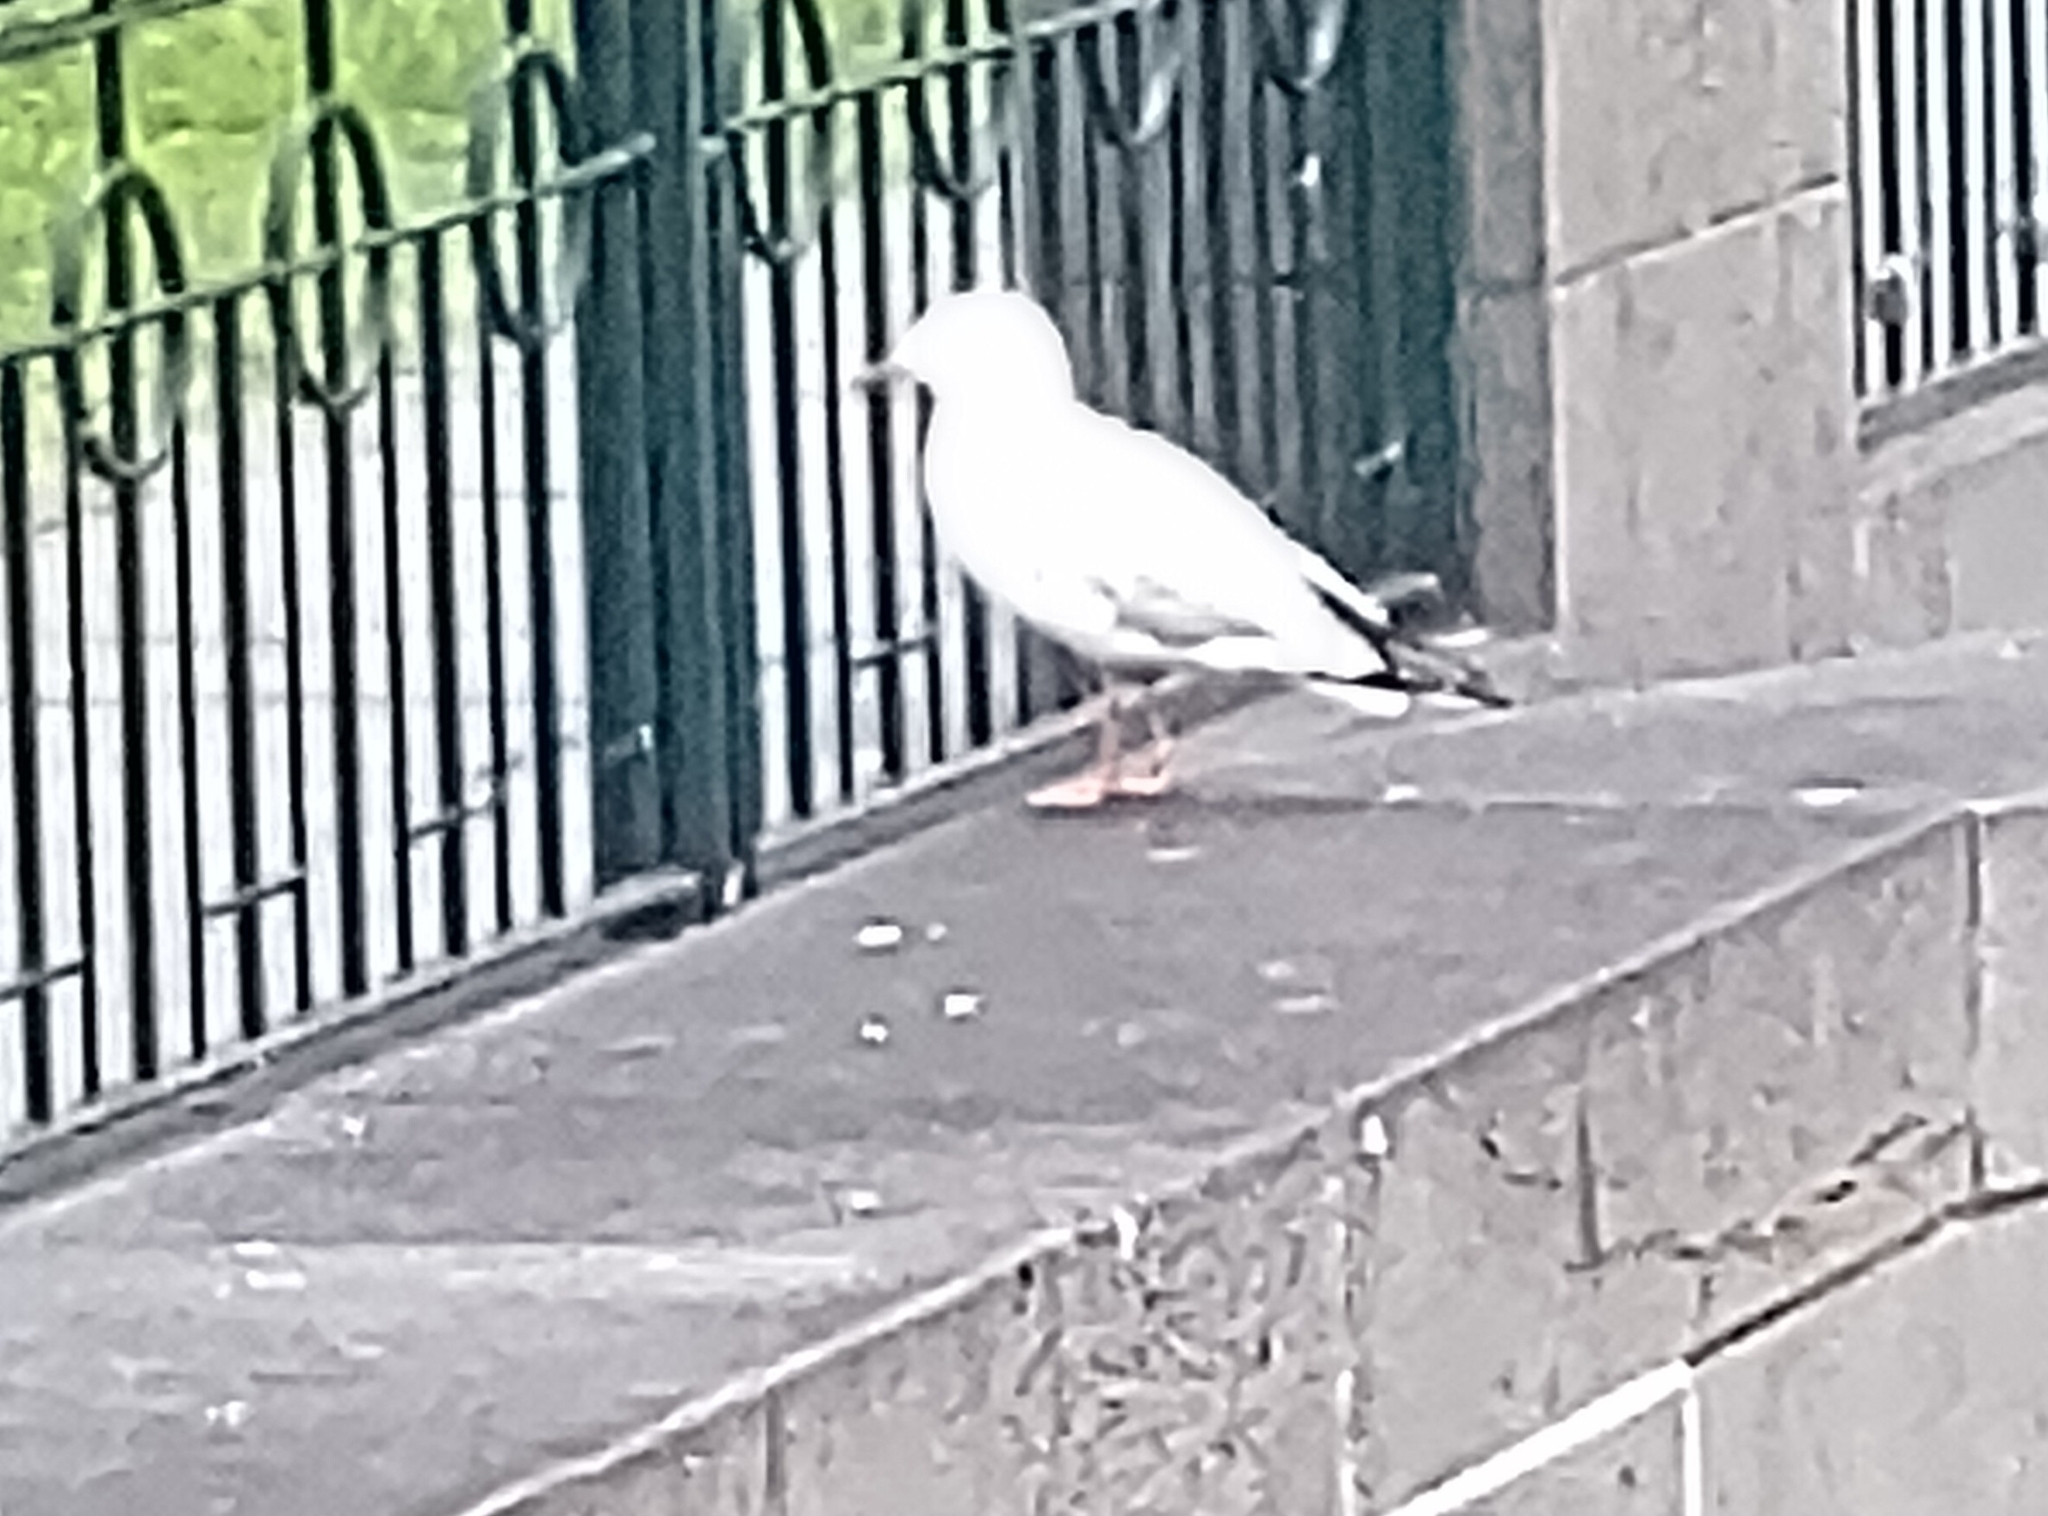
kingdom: Animalia
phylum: Chordata
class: Aves
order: Charadriiformes
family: Laridae
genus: Chroicocephalus
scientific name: Chroicocephalus novaehollandiae
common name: Silver gull
